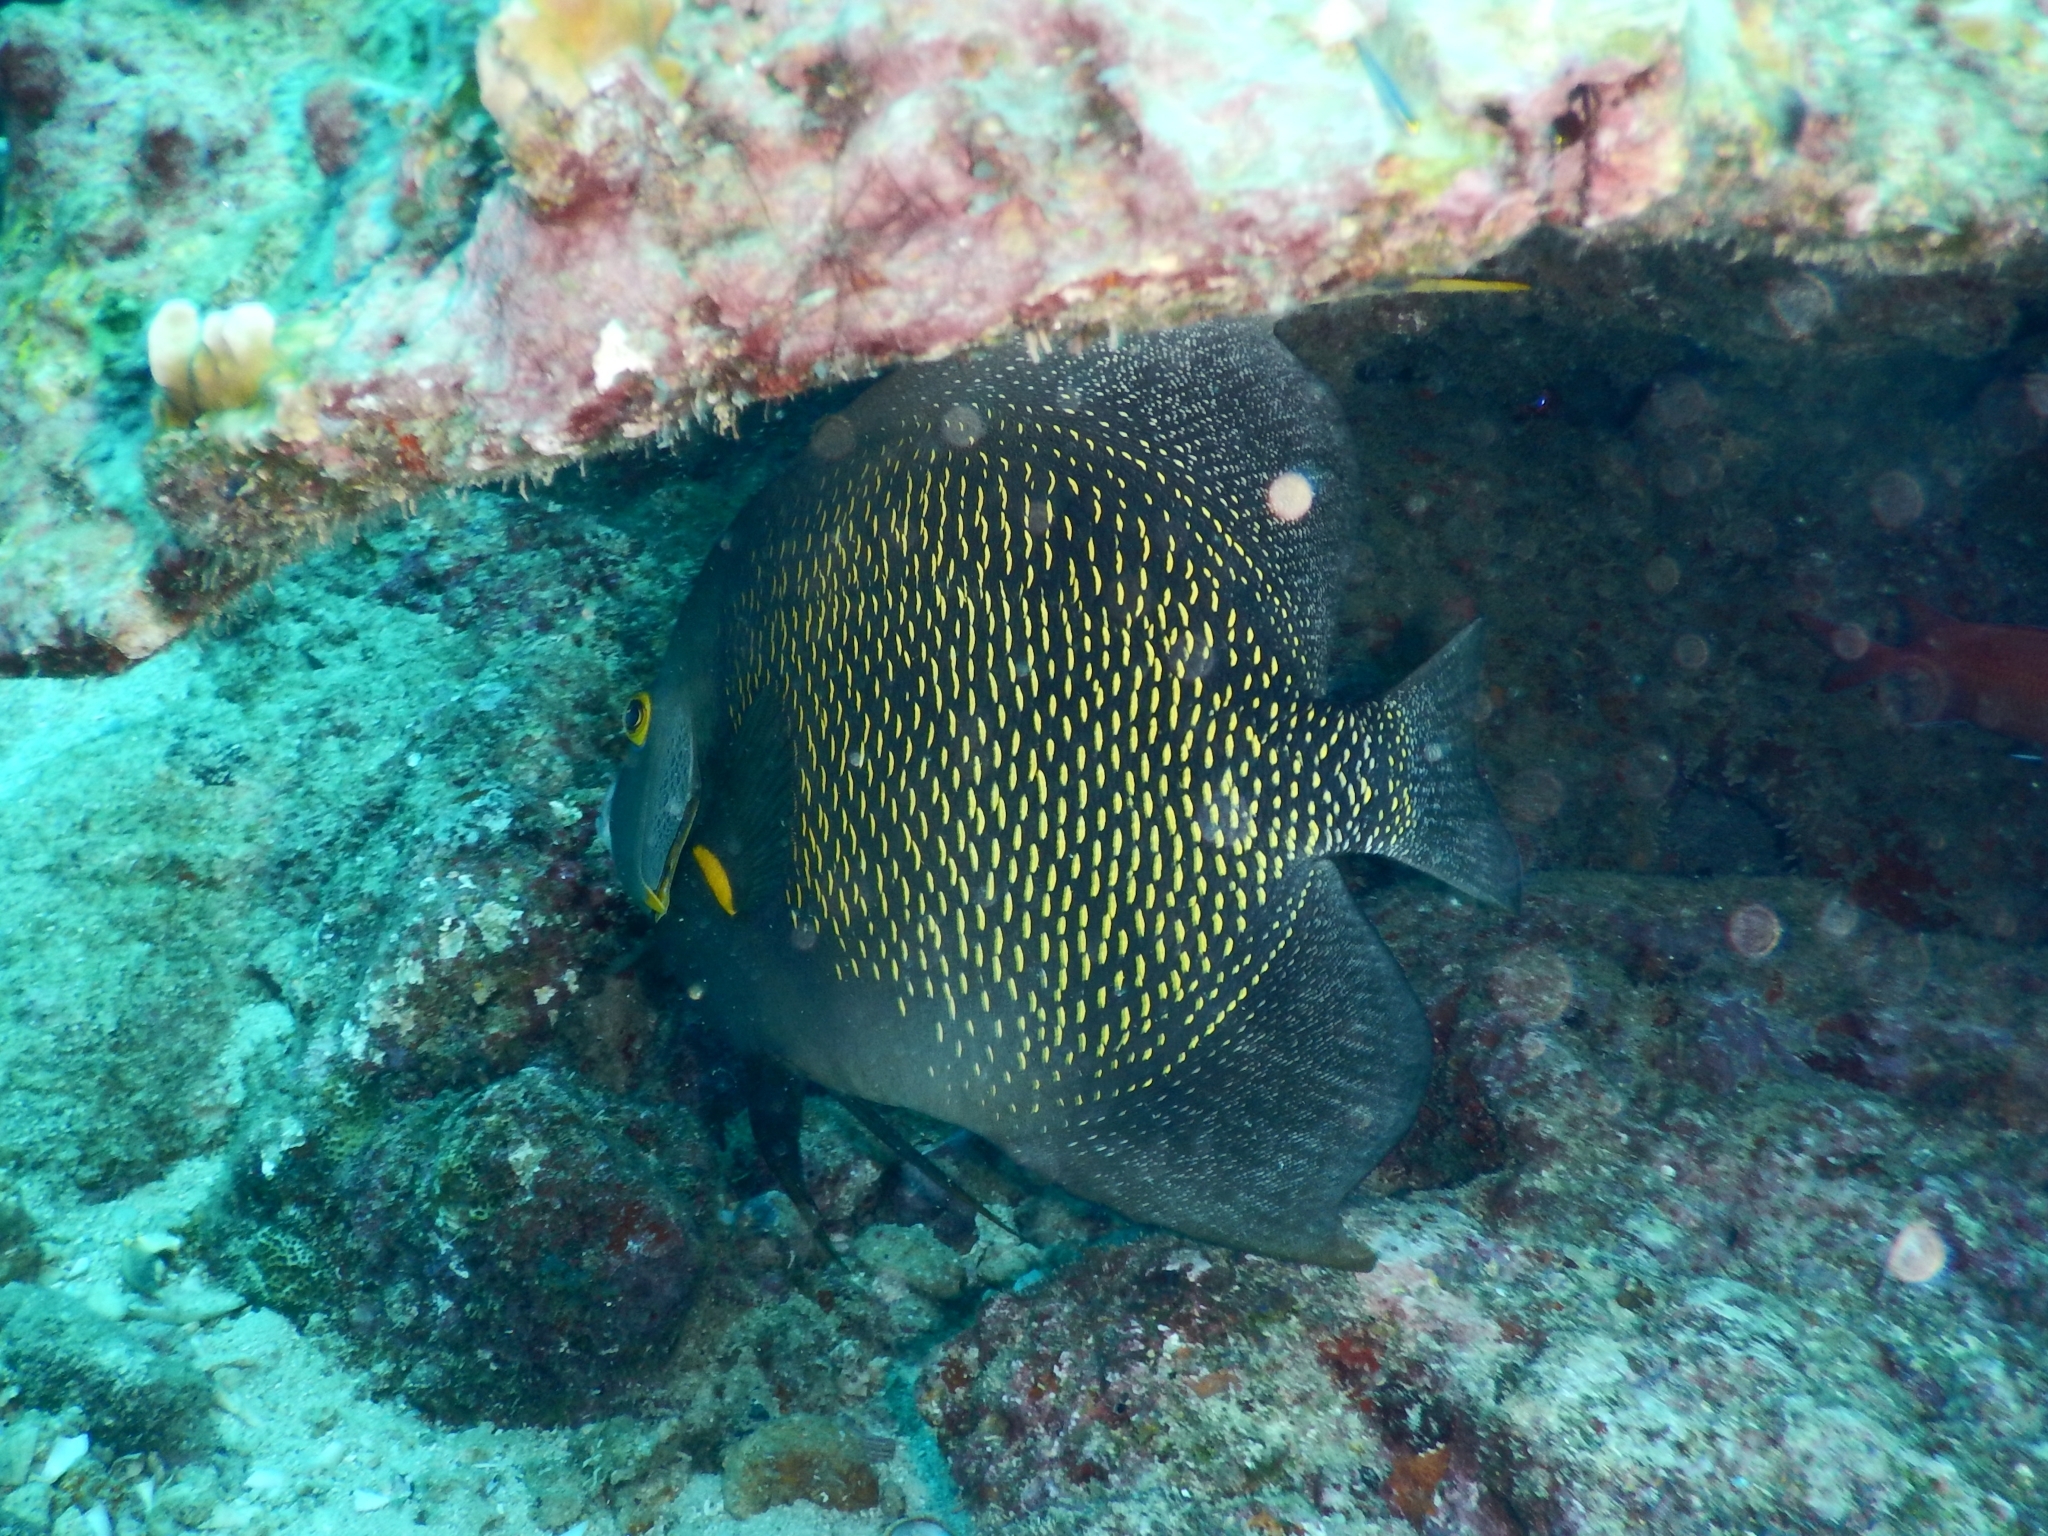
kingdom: Animalia
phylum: Chordata
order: Perciformes
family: Pomacanthidae
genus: Pomacanthus
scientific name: Pomacanthus paru
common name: French angelfish
